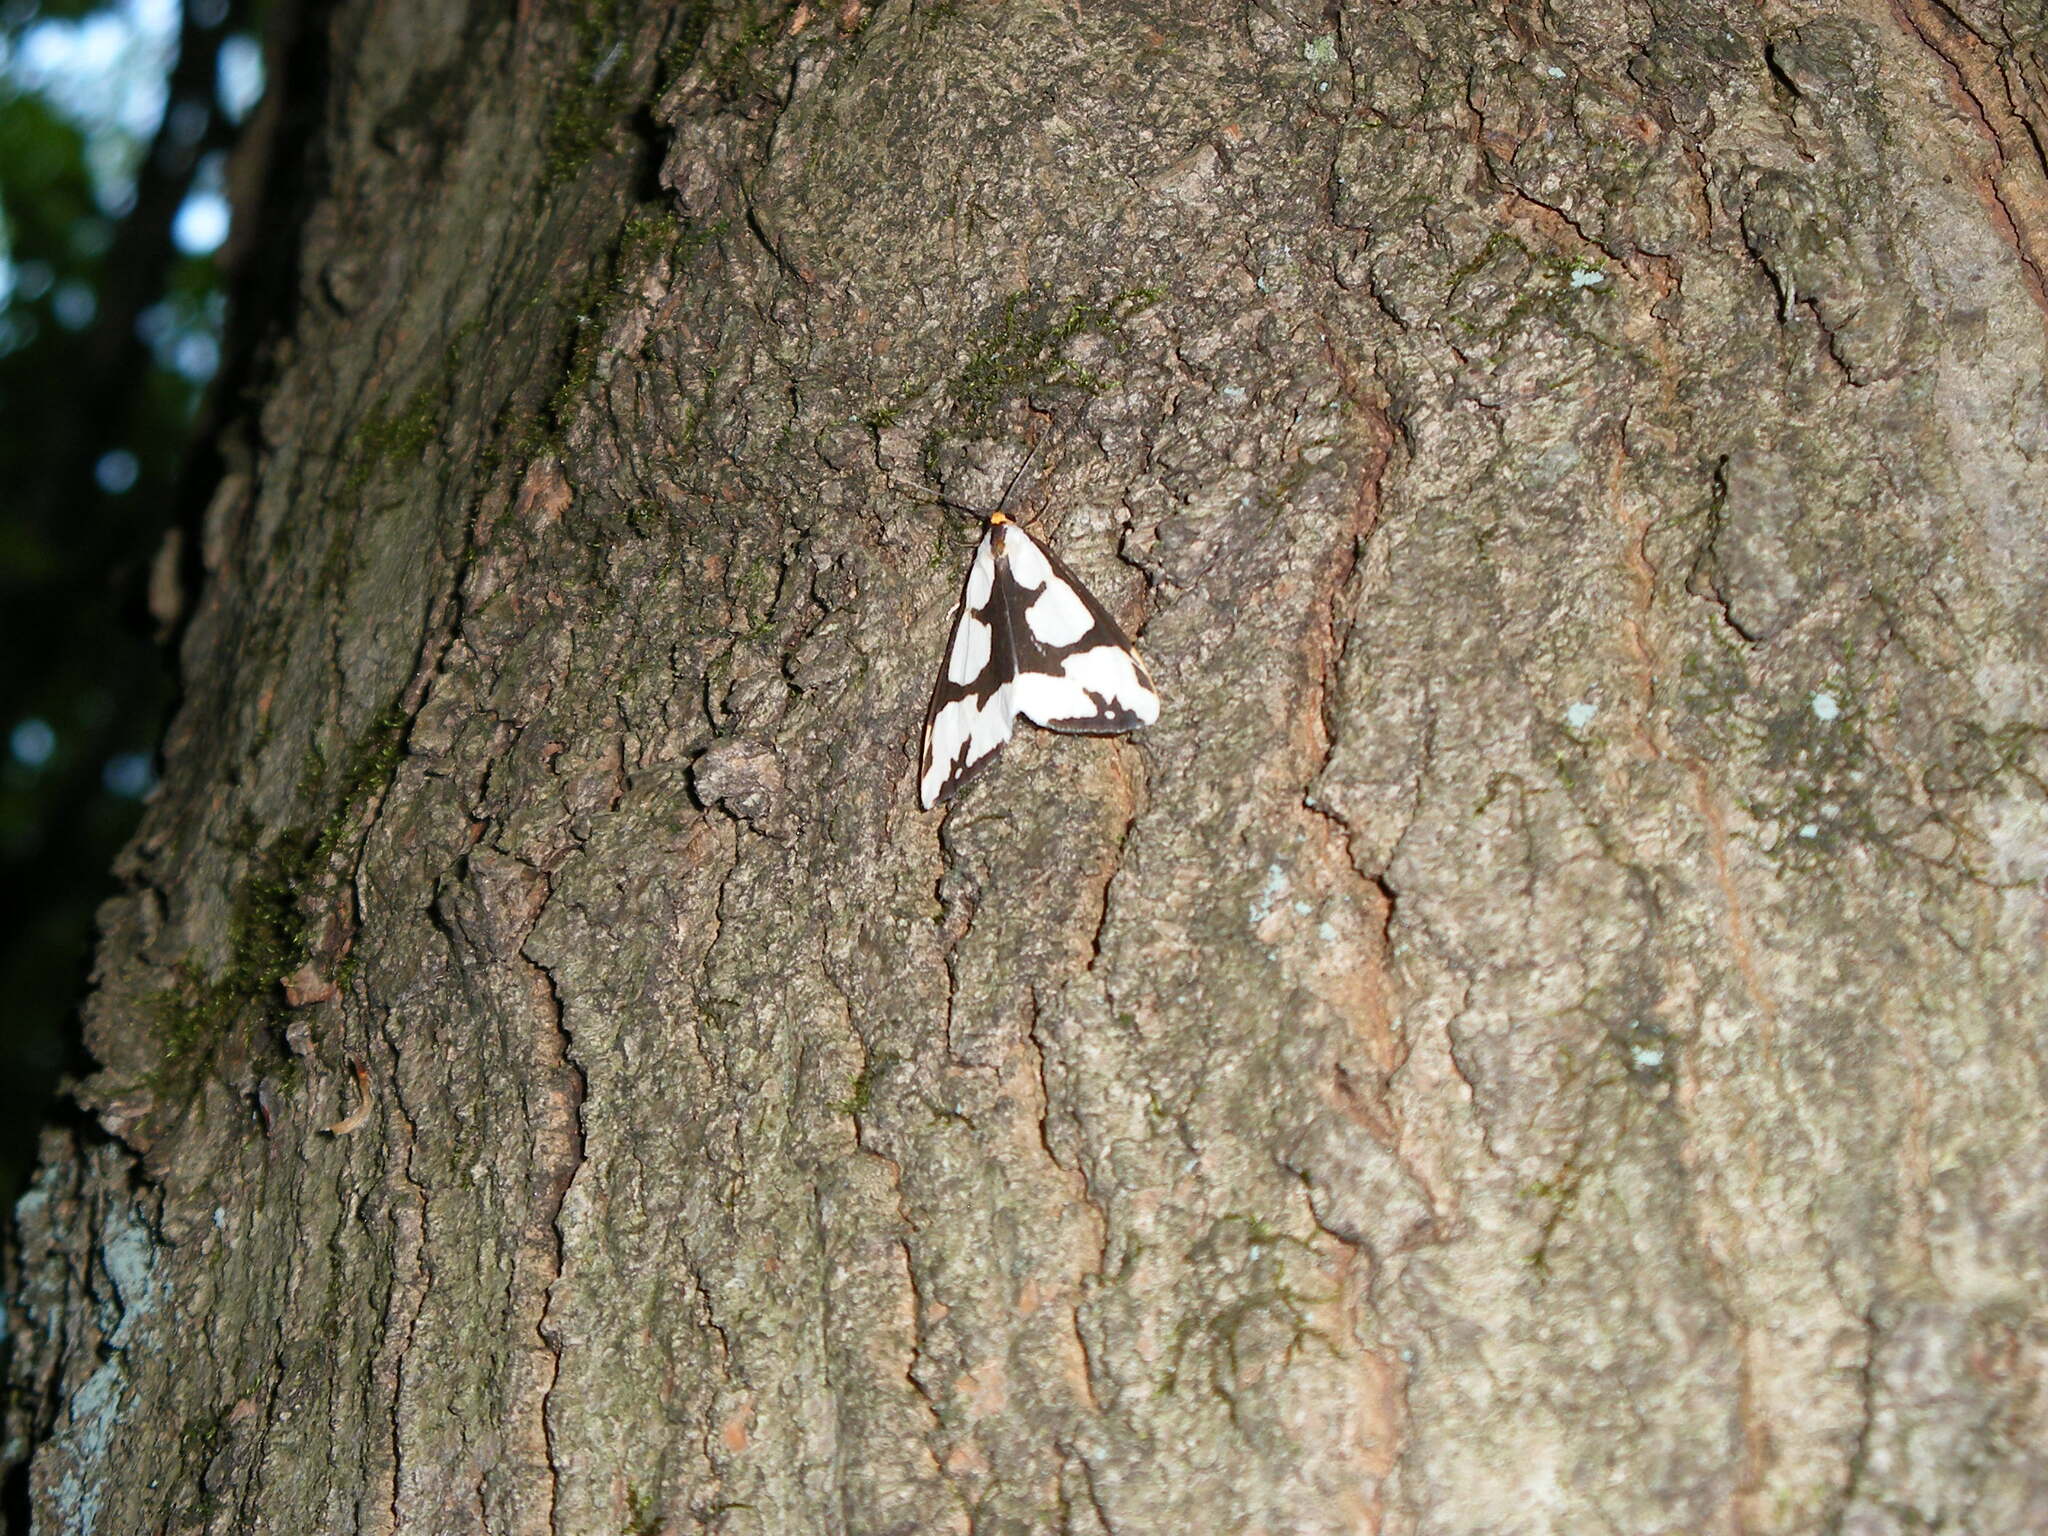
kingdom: Animalia
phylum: Arthropoda
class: Insecta
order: Lepidoptera
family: Erebidae
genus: Haploa
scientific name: Haploa lecontei
